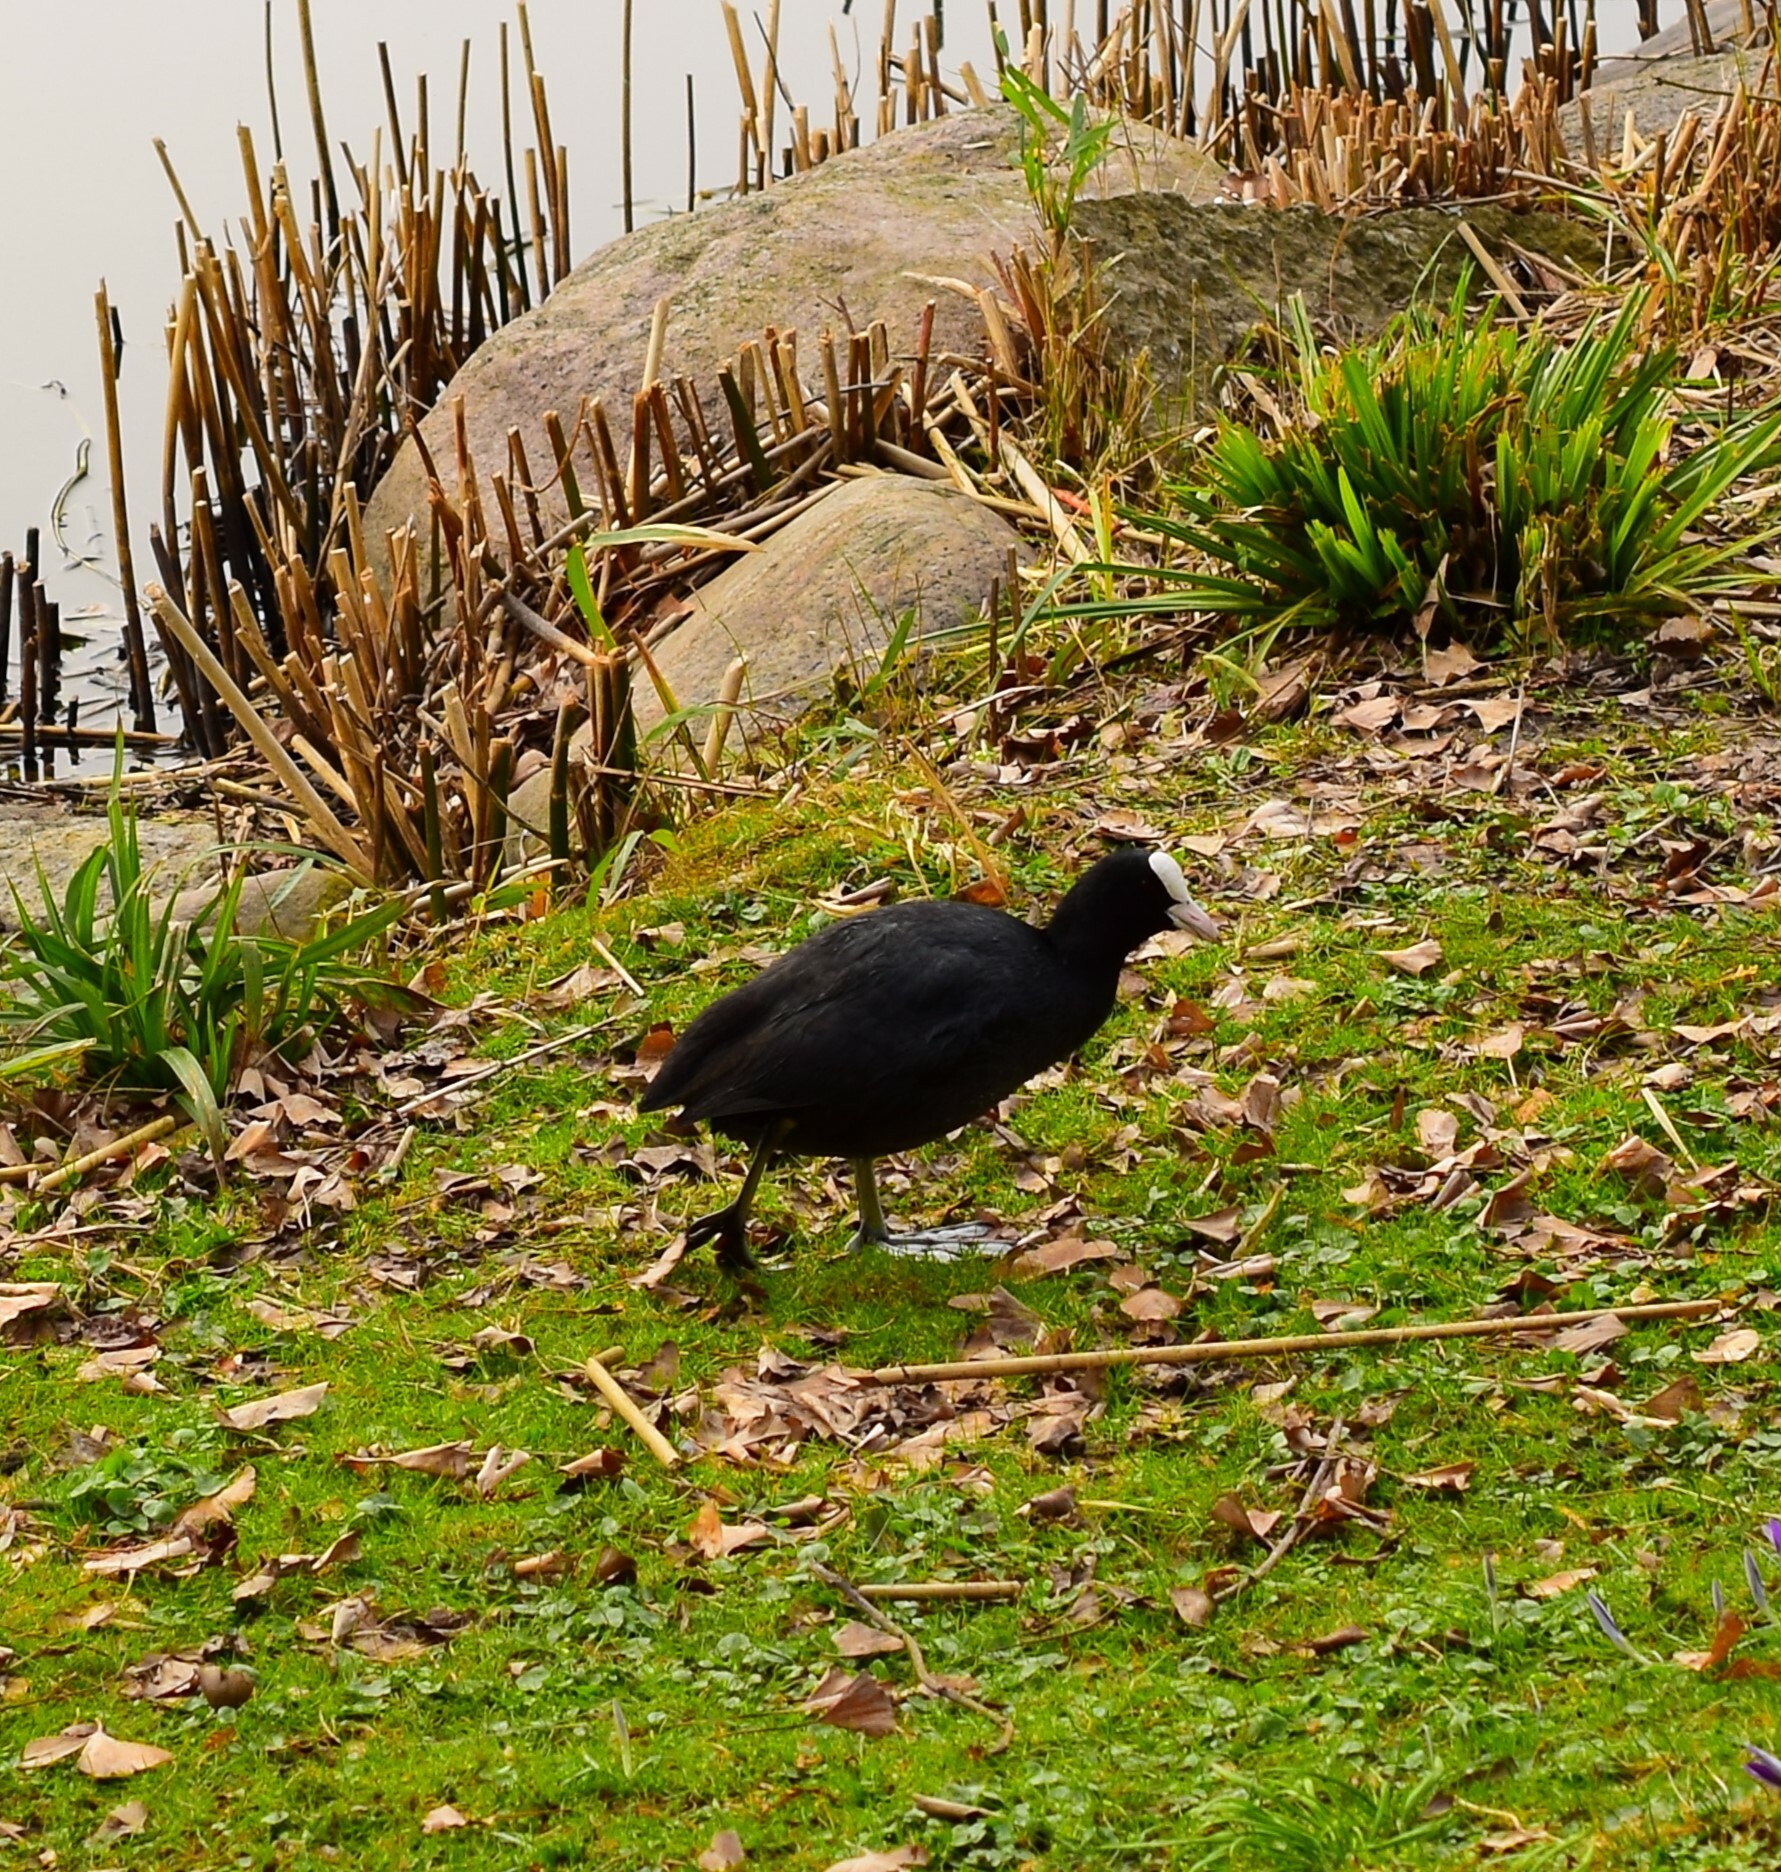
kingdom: Animalia
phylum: Chordata
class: Aves
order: Gruiformes
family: Rallidae
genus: Fulica
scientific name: Fulica atra
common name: Eurasian coot
